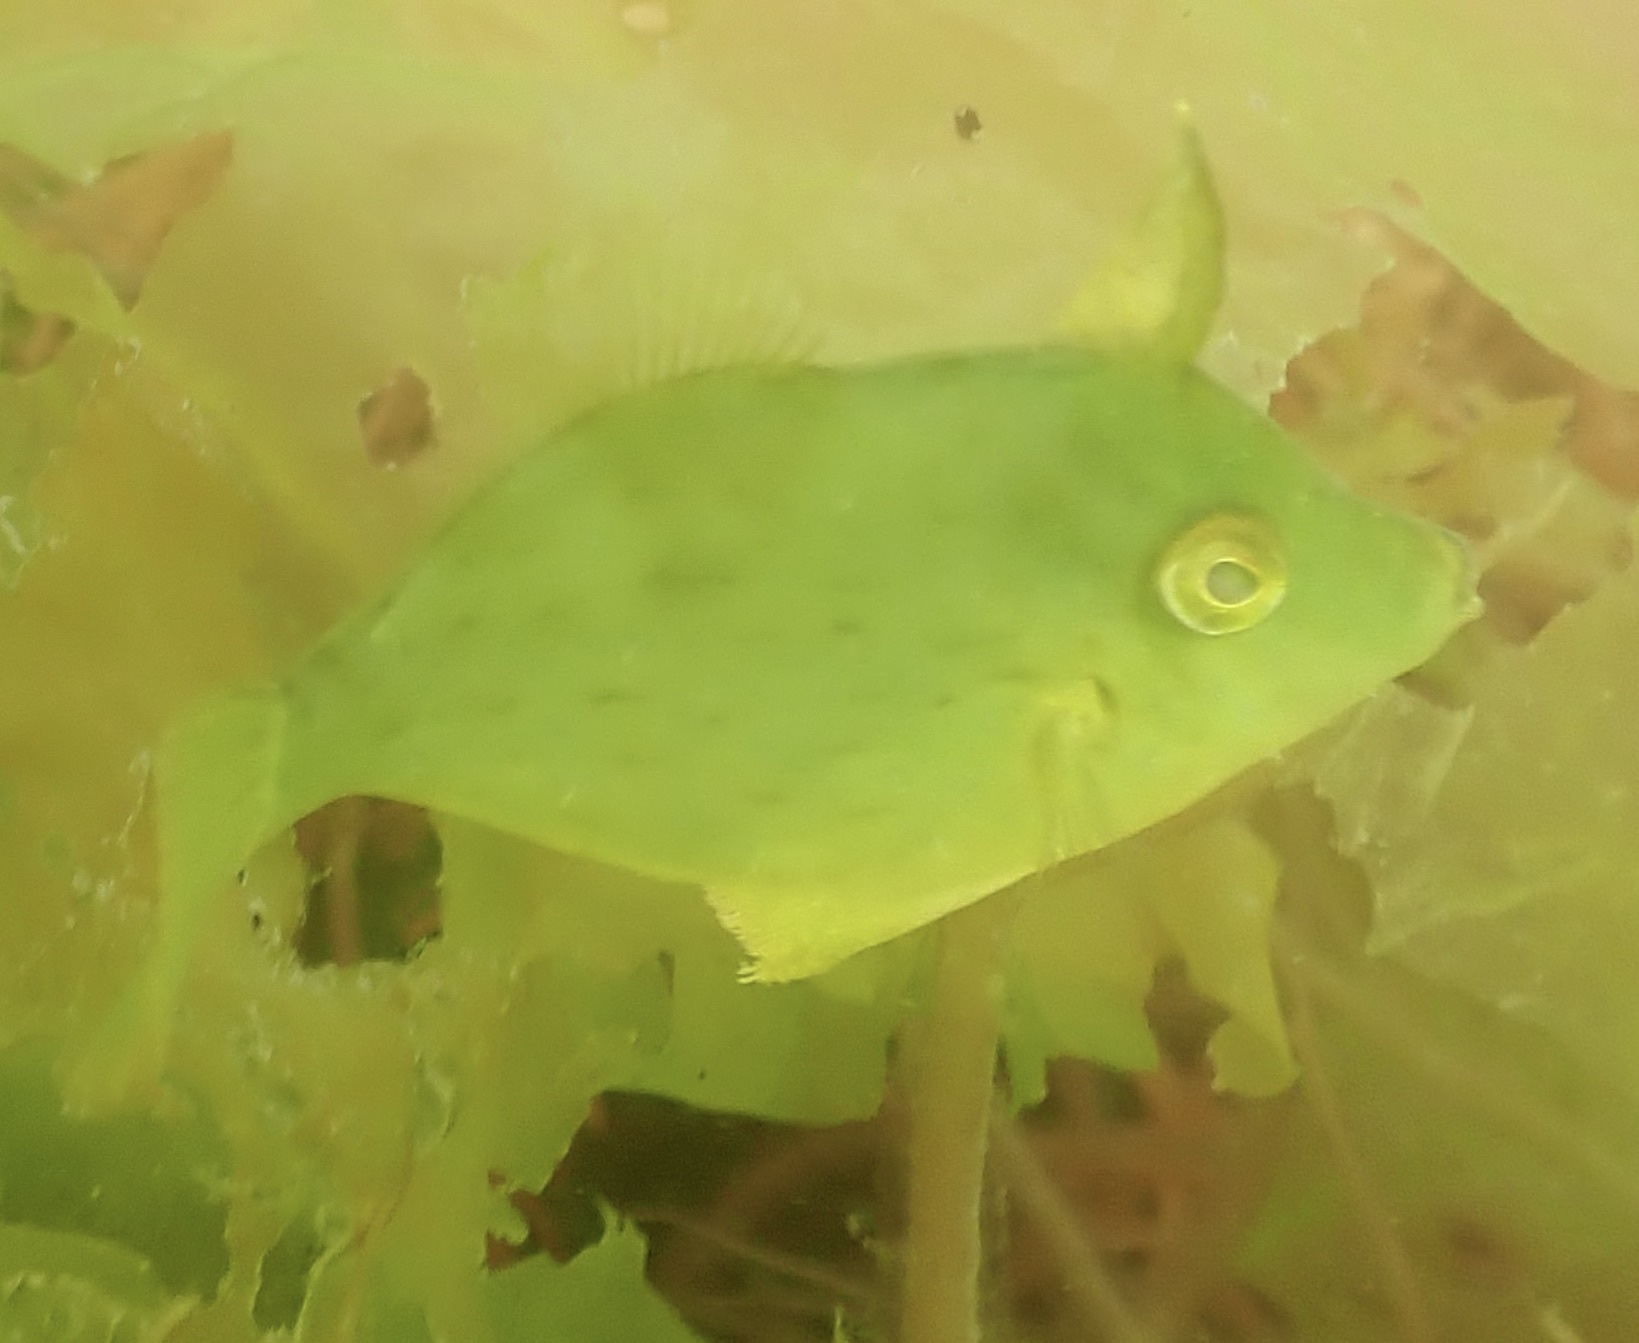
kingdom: Animalia
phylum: Chordata
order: Tetraodontiformes
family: Monacanthidae
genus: Stephanolepis
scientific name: Stephanolepis hispidus
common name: Planehead filefish
